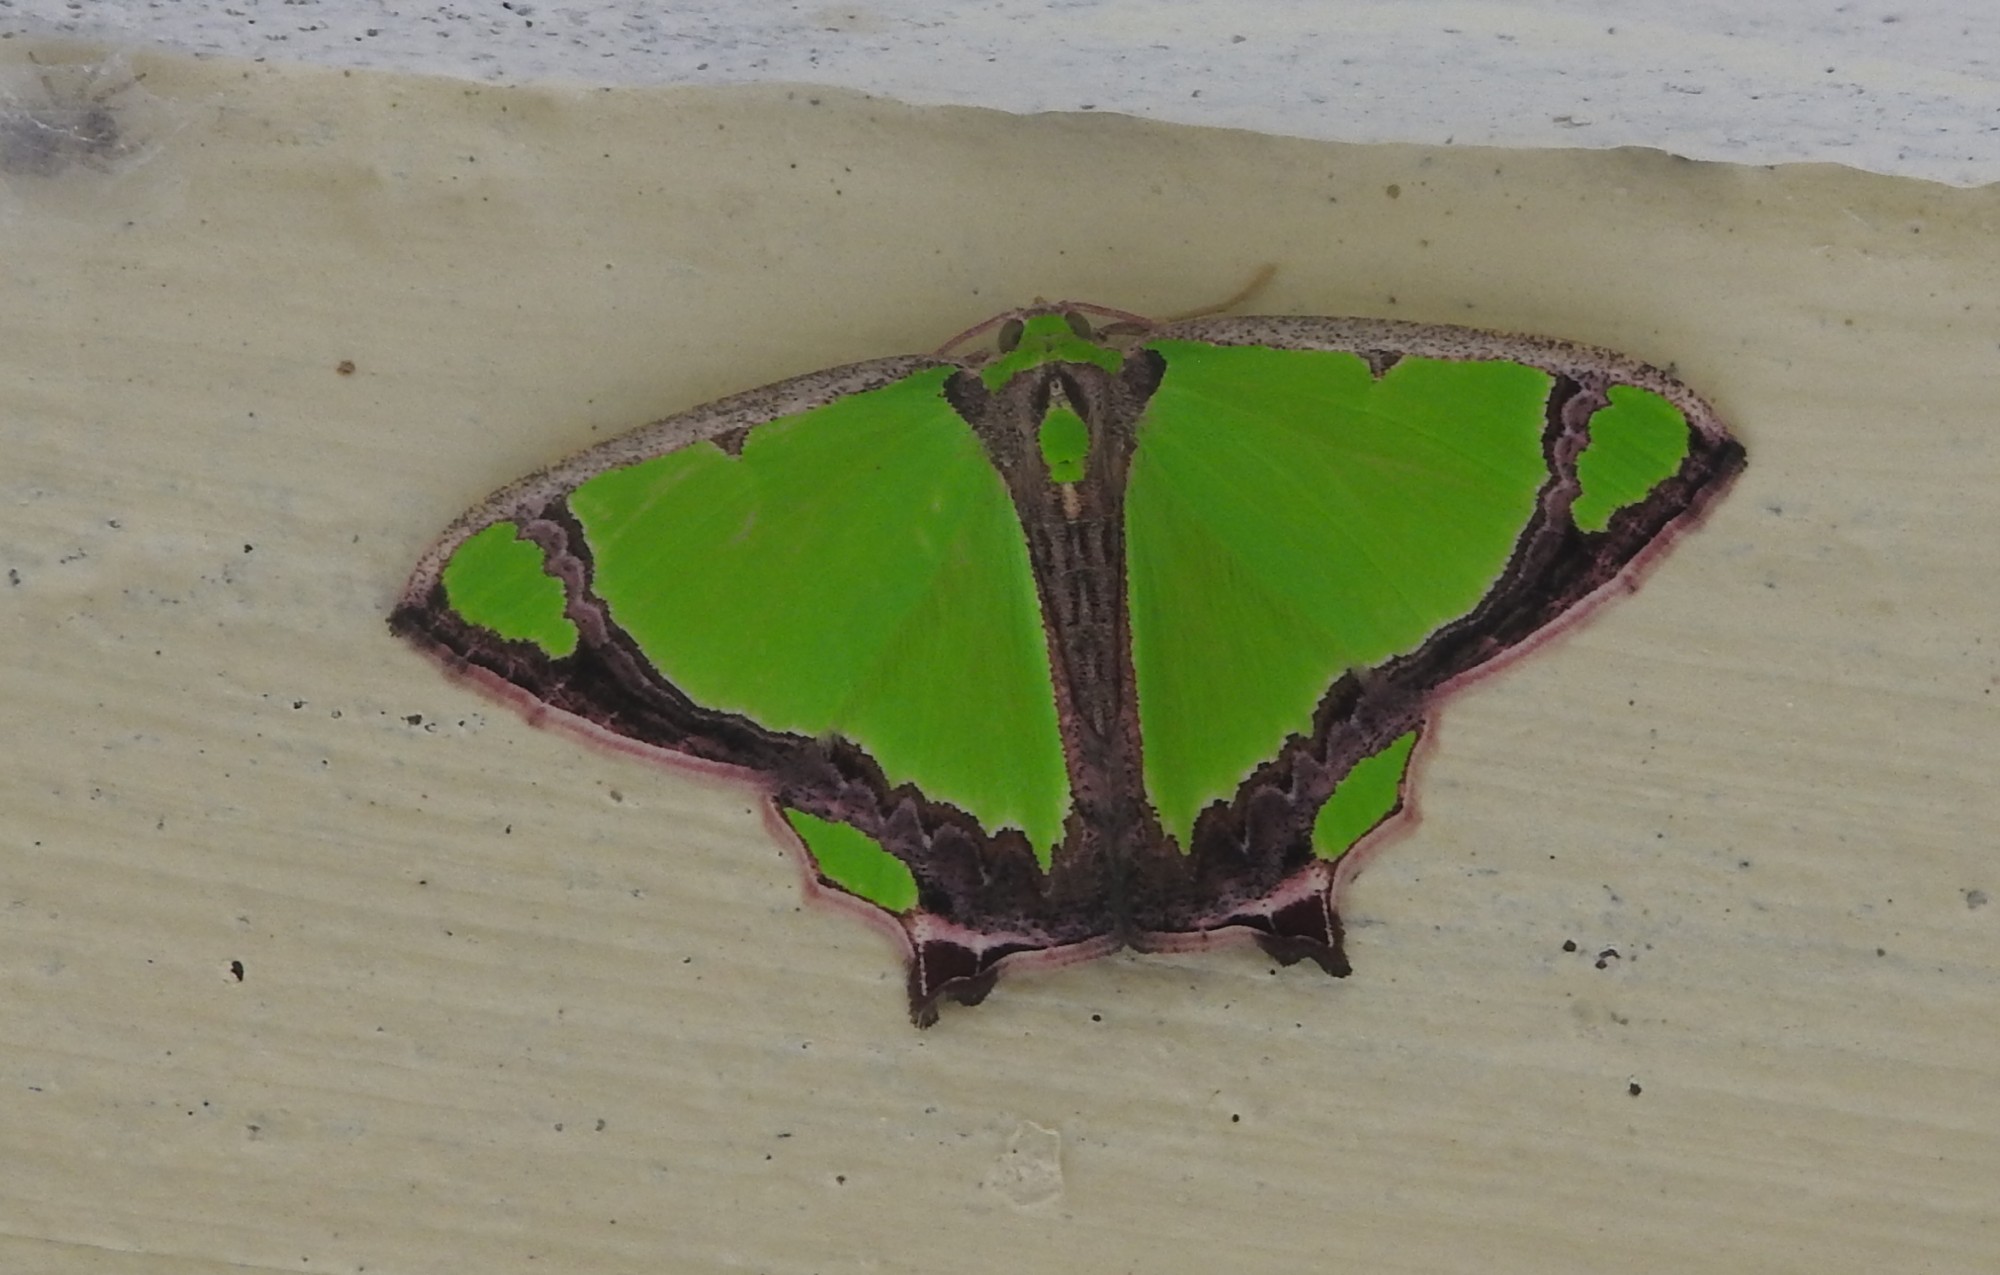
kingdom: Animalia
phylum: Arthropoda
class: Insecta
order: Lepidoptera
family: Geometridae
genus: Agathia
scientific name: Agathia laetata
